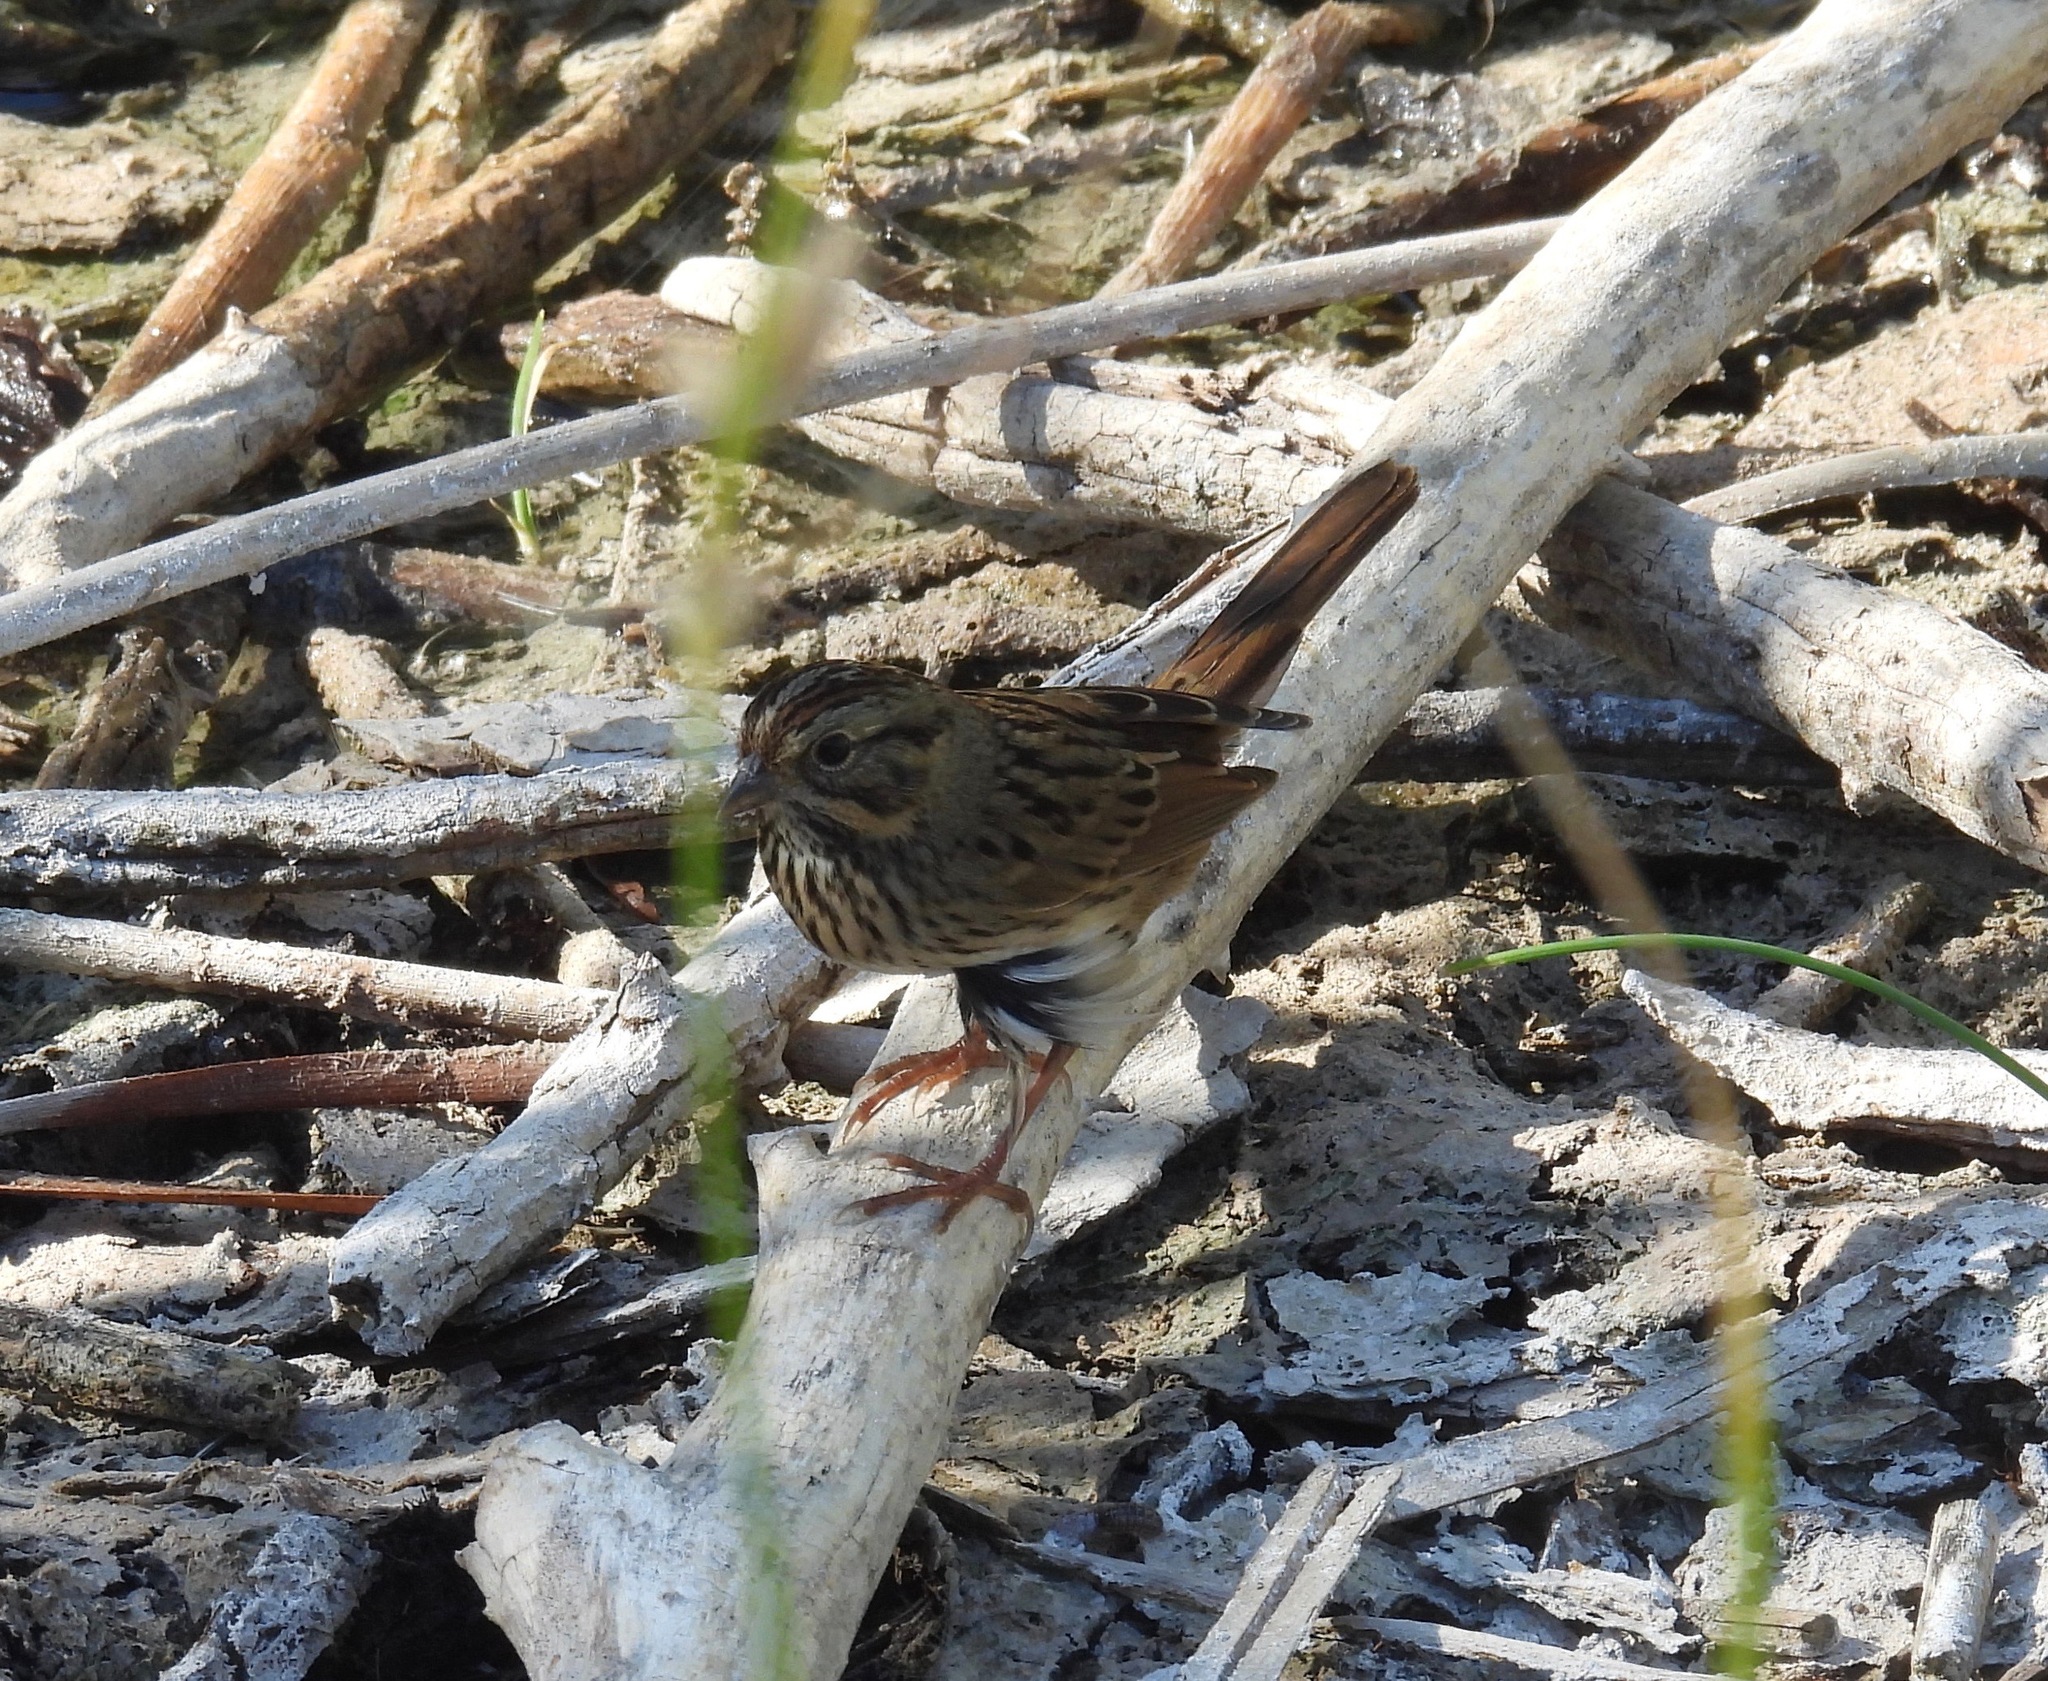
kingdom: Animalia
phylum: Chordata
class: Aves
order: Passeriformes
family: Passerellidae
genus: Melospiza
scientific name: Melospiza lincolnii
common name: Lincoln's sparrow
